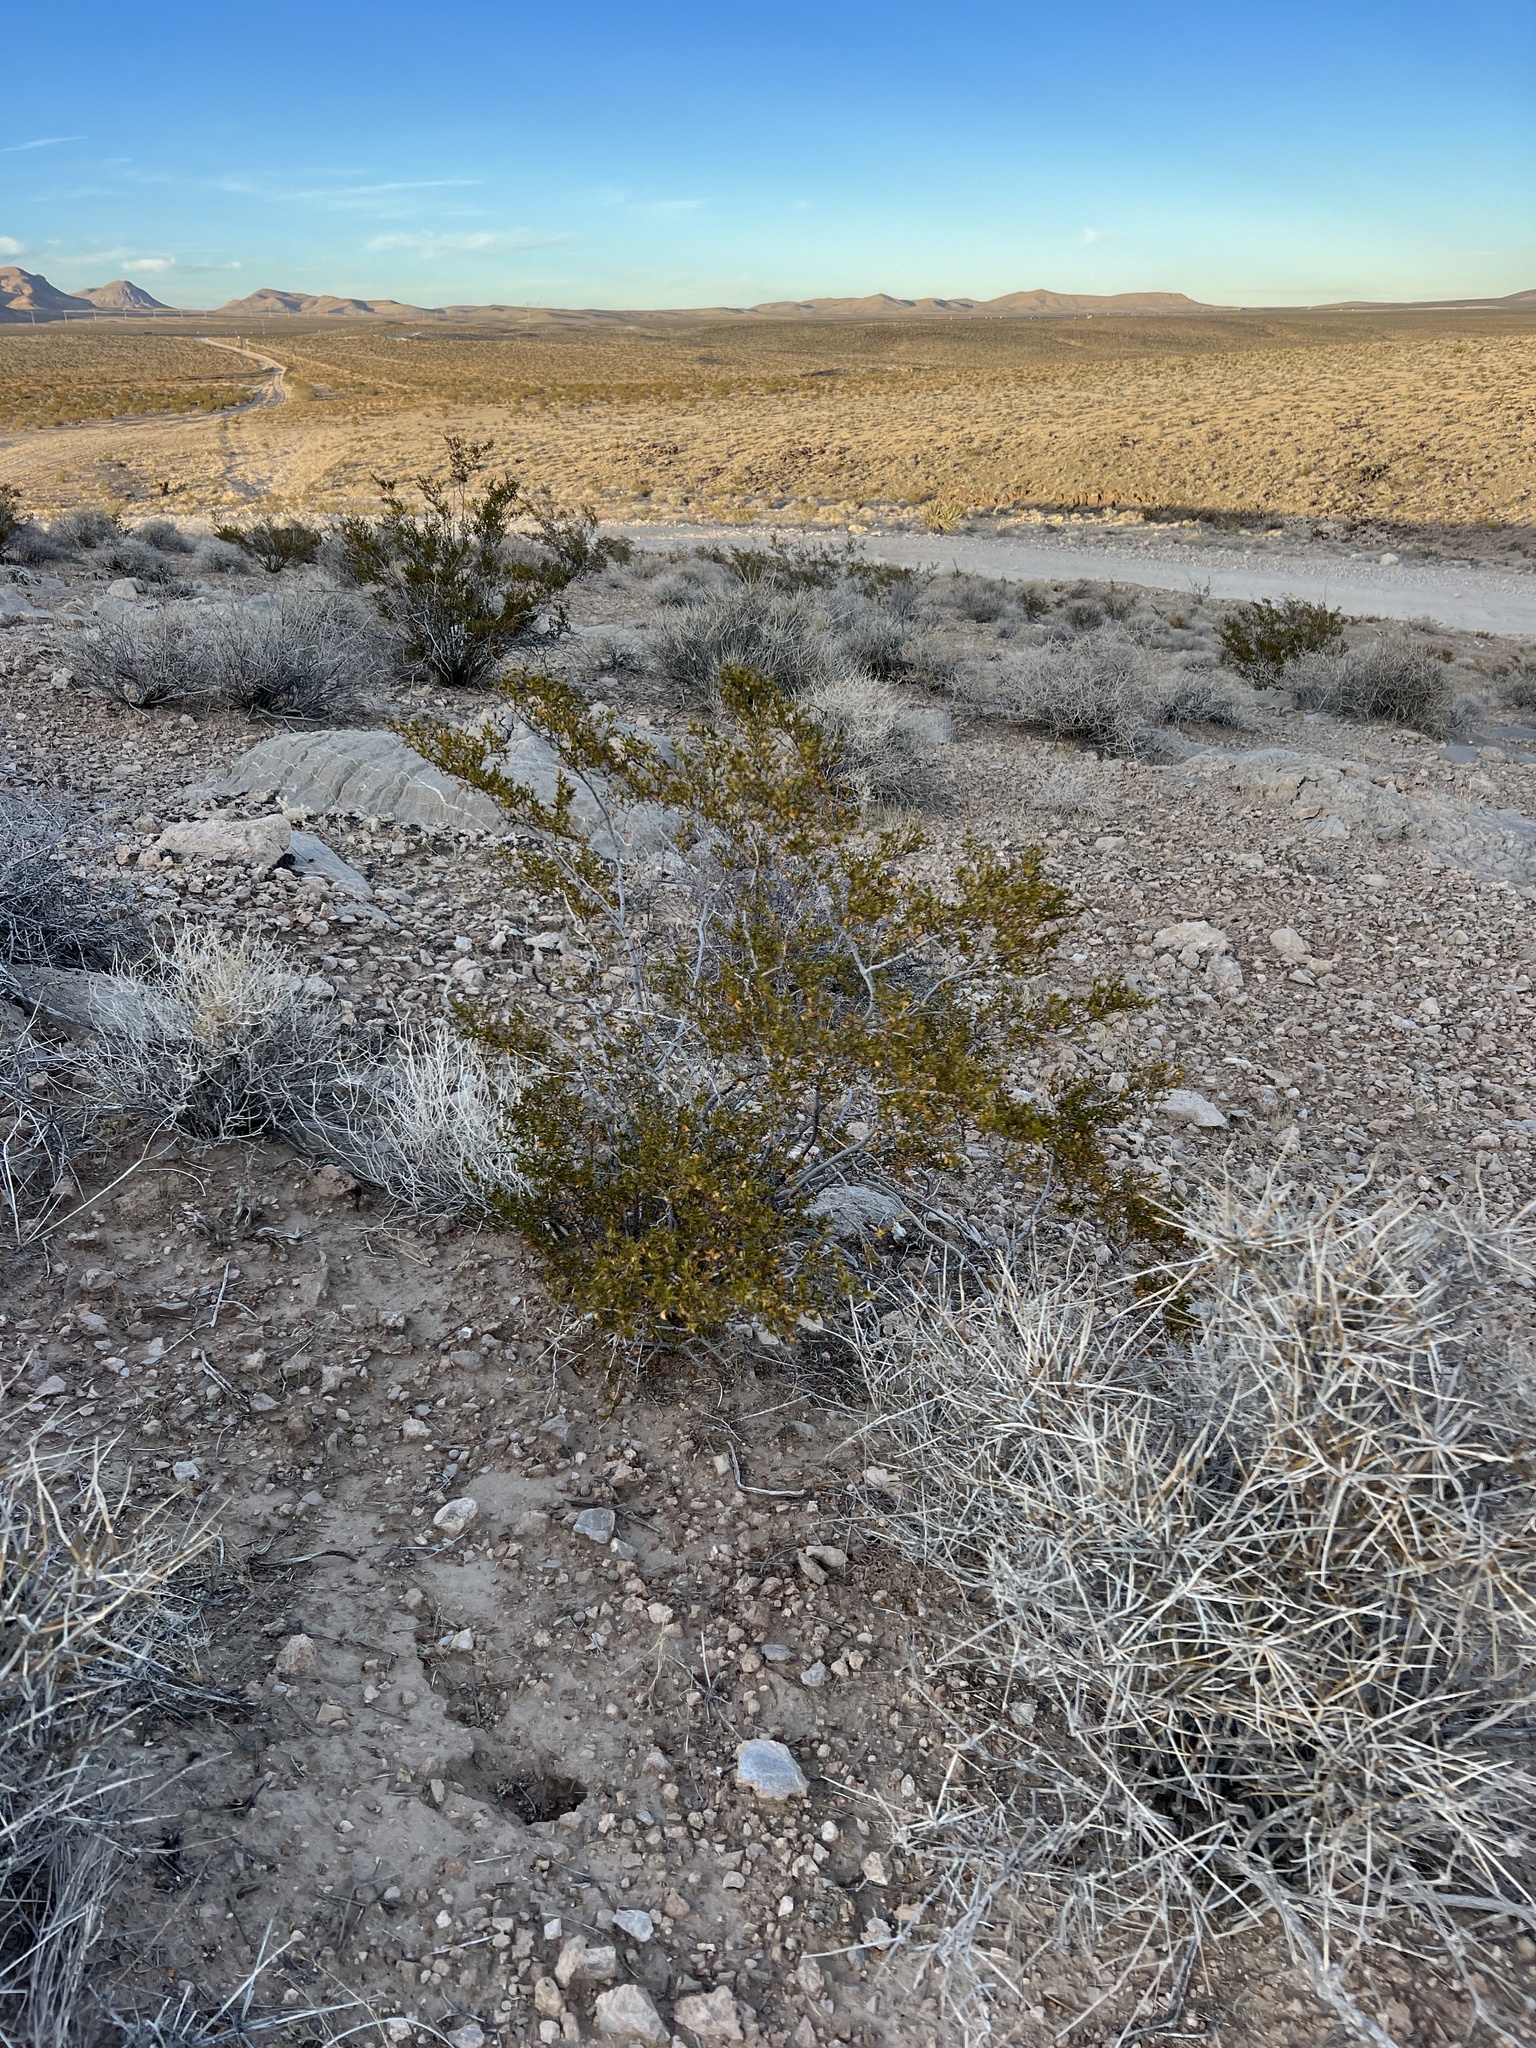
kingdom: Plantae
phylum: Tracheophyta
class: Magnoliopsida
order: Zygophyllales
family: Zygophyllaceae
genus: Larrea
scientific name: Larrea tridentata
